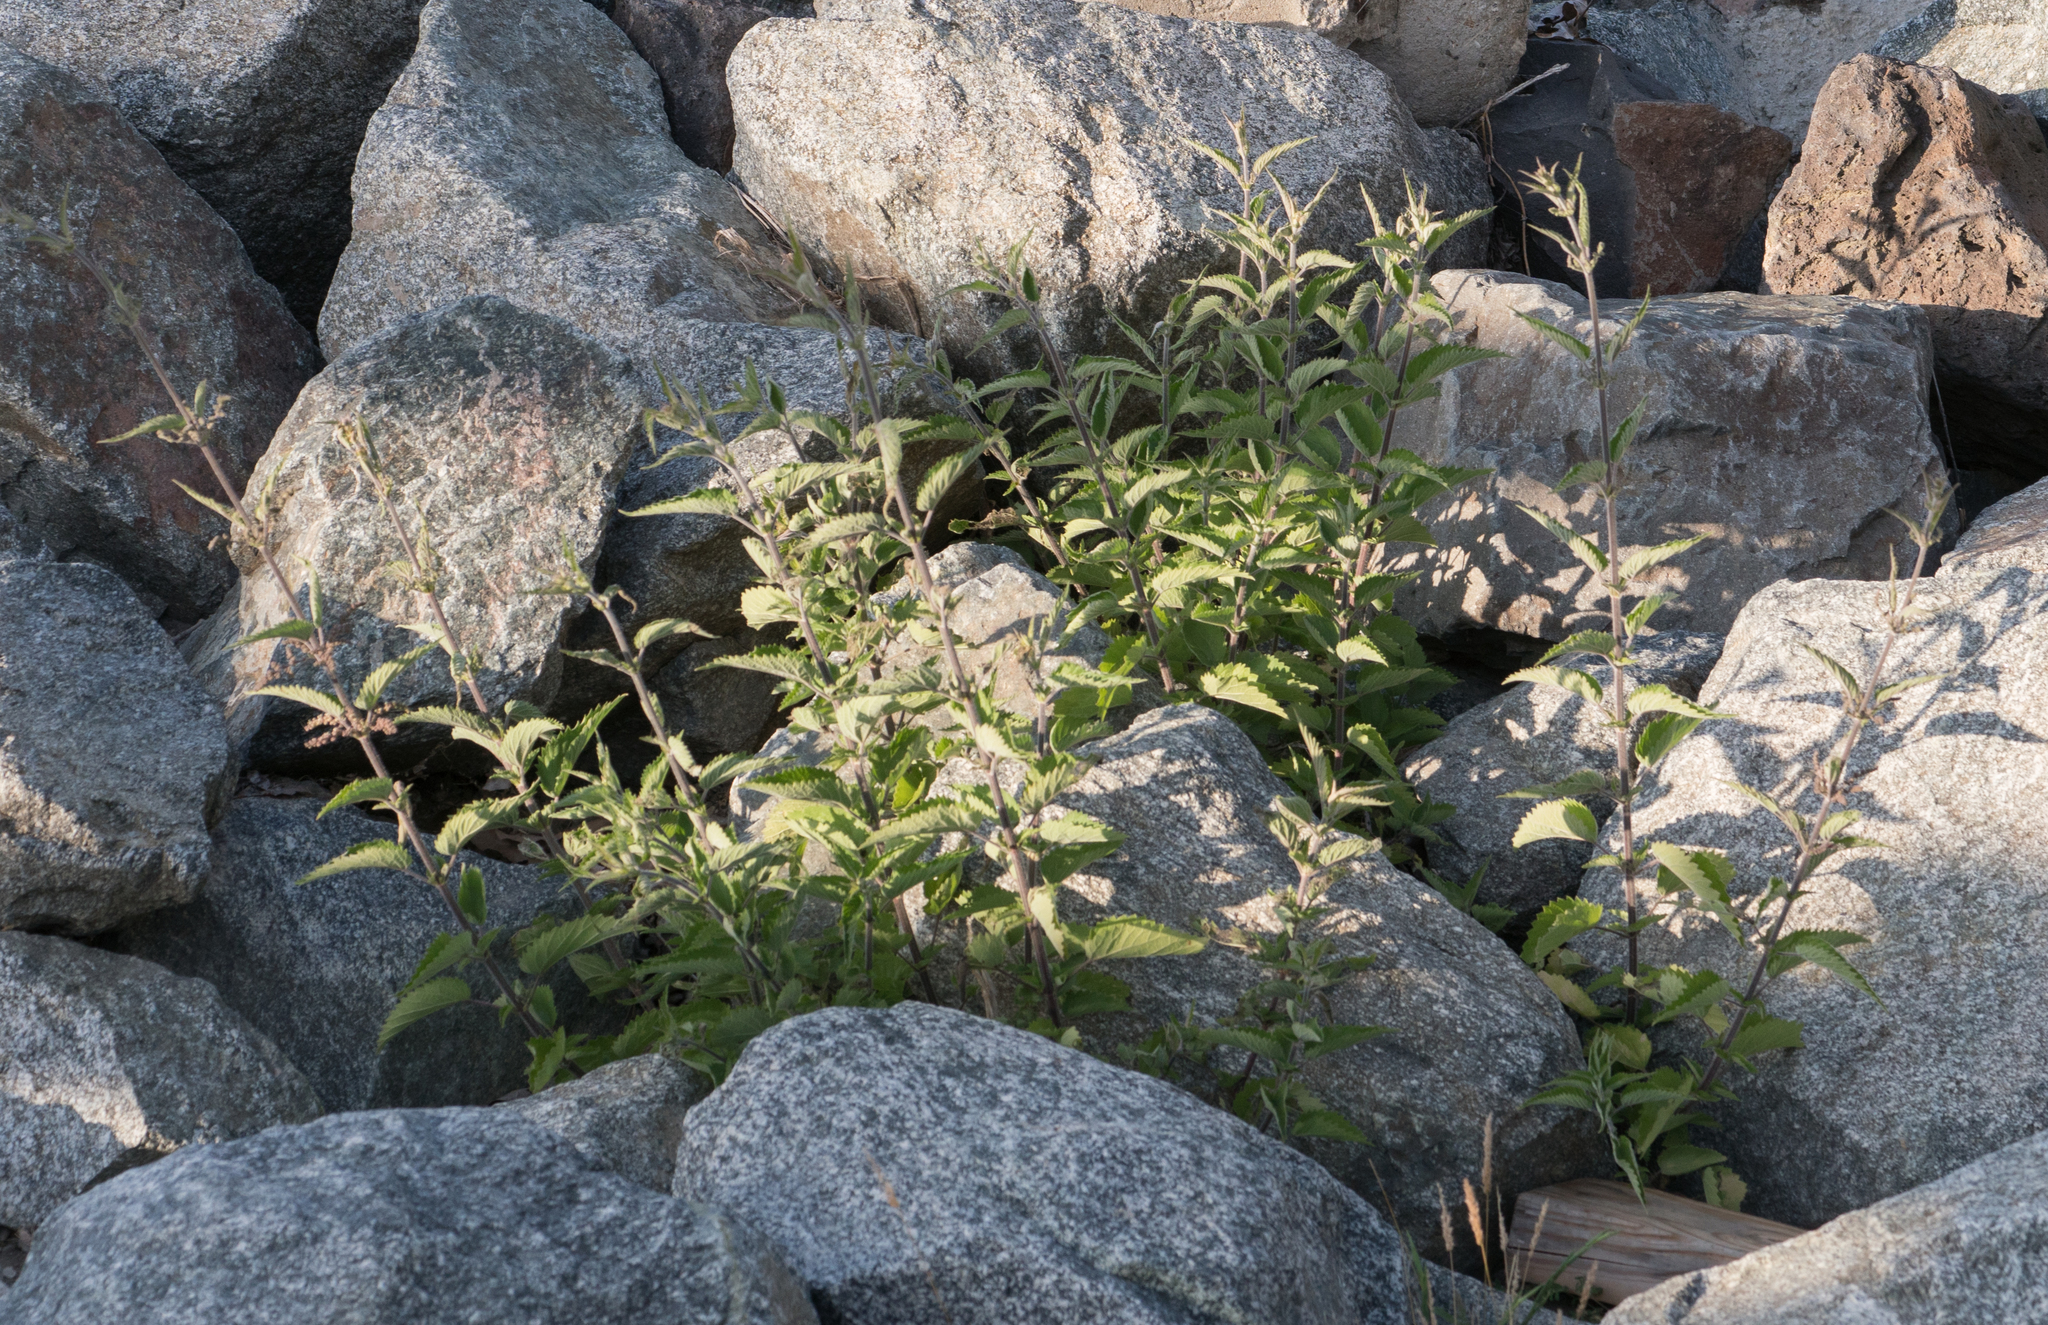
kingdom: Plantae
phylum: Tracheophyta
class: Magnoliopsida
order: Rosales
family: Urticaceae
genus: Urtica
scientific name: Urtica dioica
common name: Common nettle
